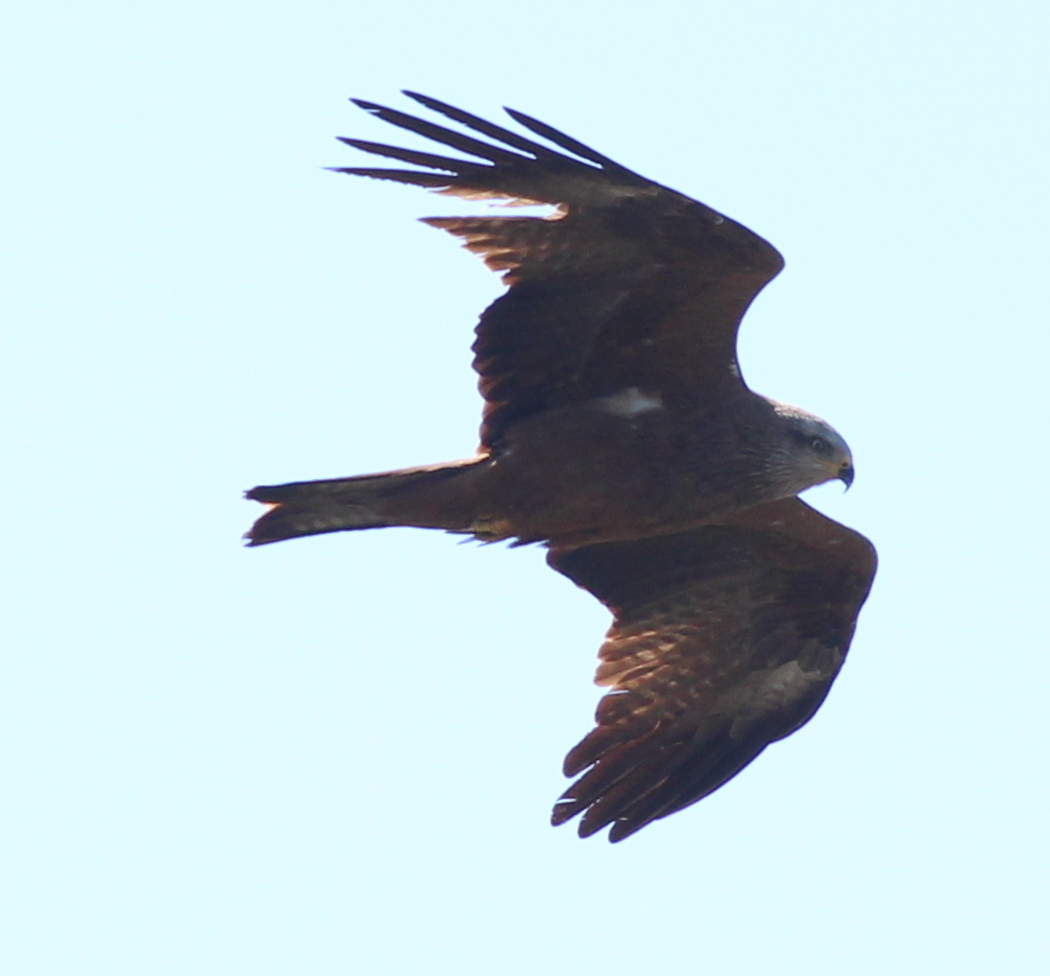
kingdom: Animalia
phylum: Chordata
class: Aves
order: Accipitriformes
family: Accipitridae
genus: Milvus
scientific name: Milvus migrans
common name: Black kite
